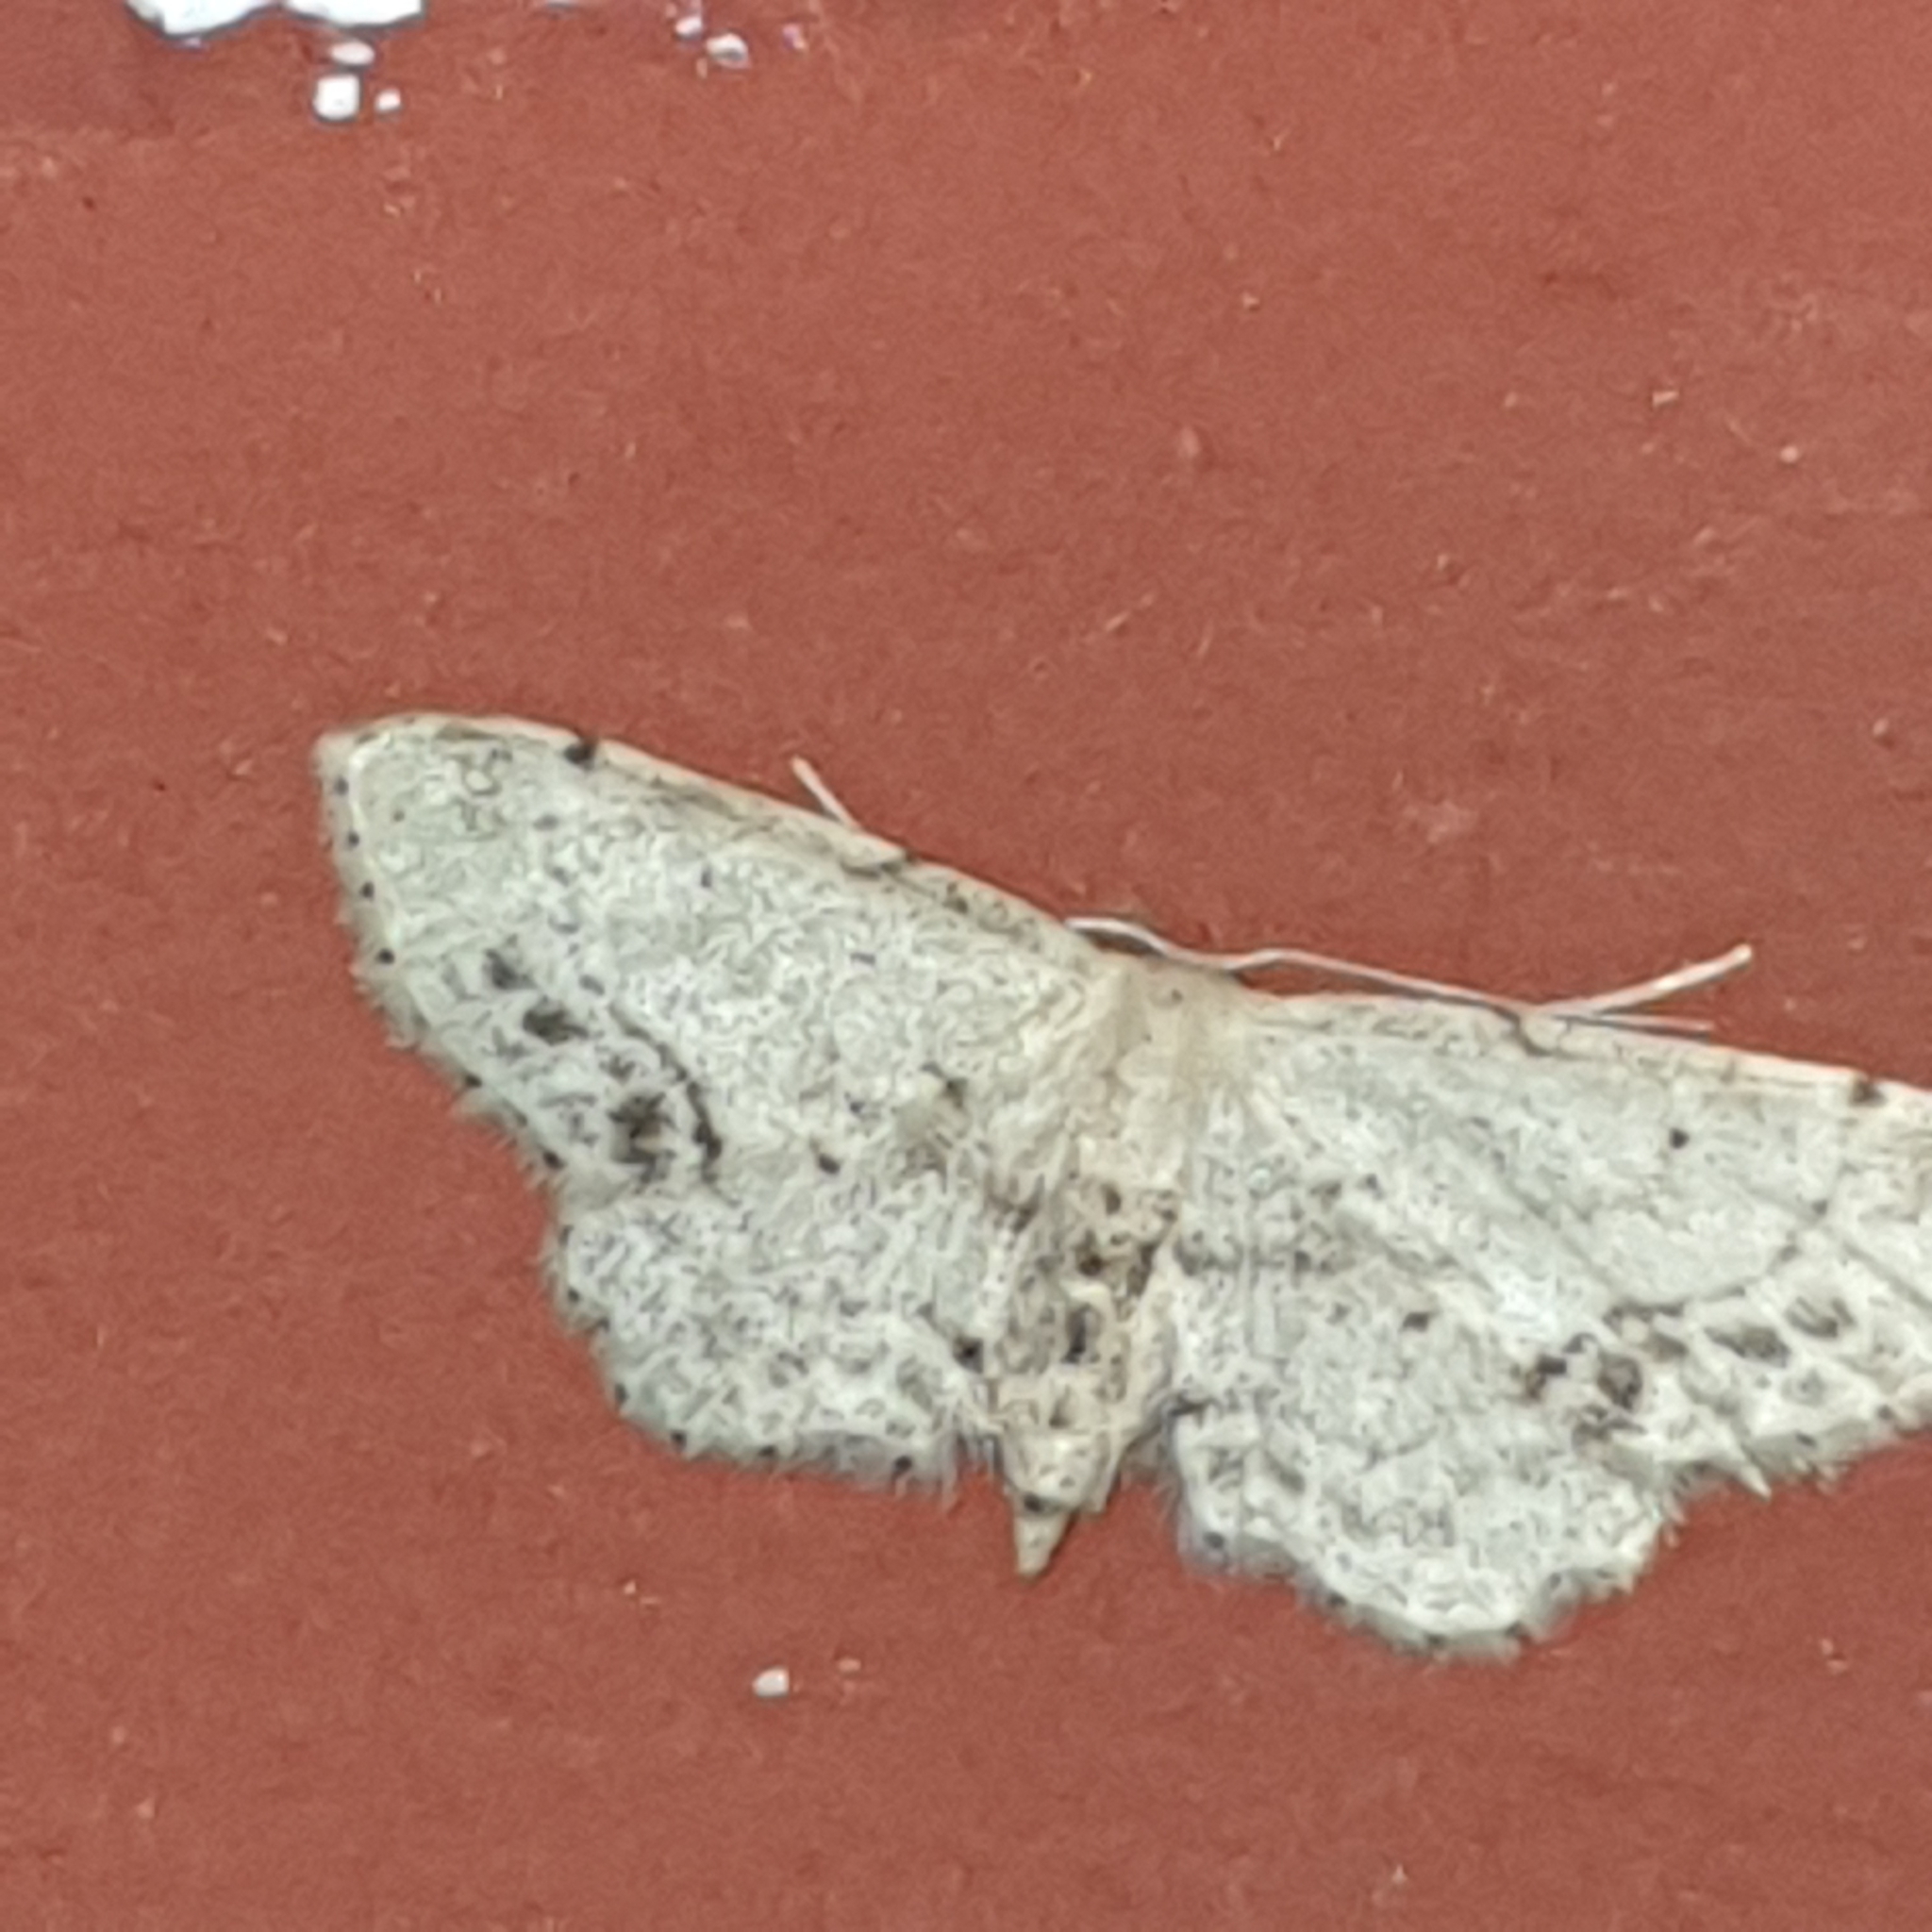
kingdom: Animalia
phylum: Arthropoda
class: Insecta
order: Lepidoptera
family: Geometridae
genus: Idaea
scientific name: Idaea dimidiata
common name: Single-dotted wave
